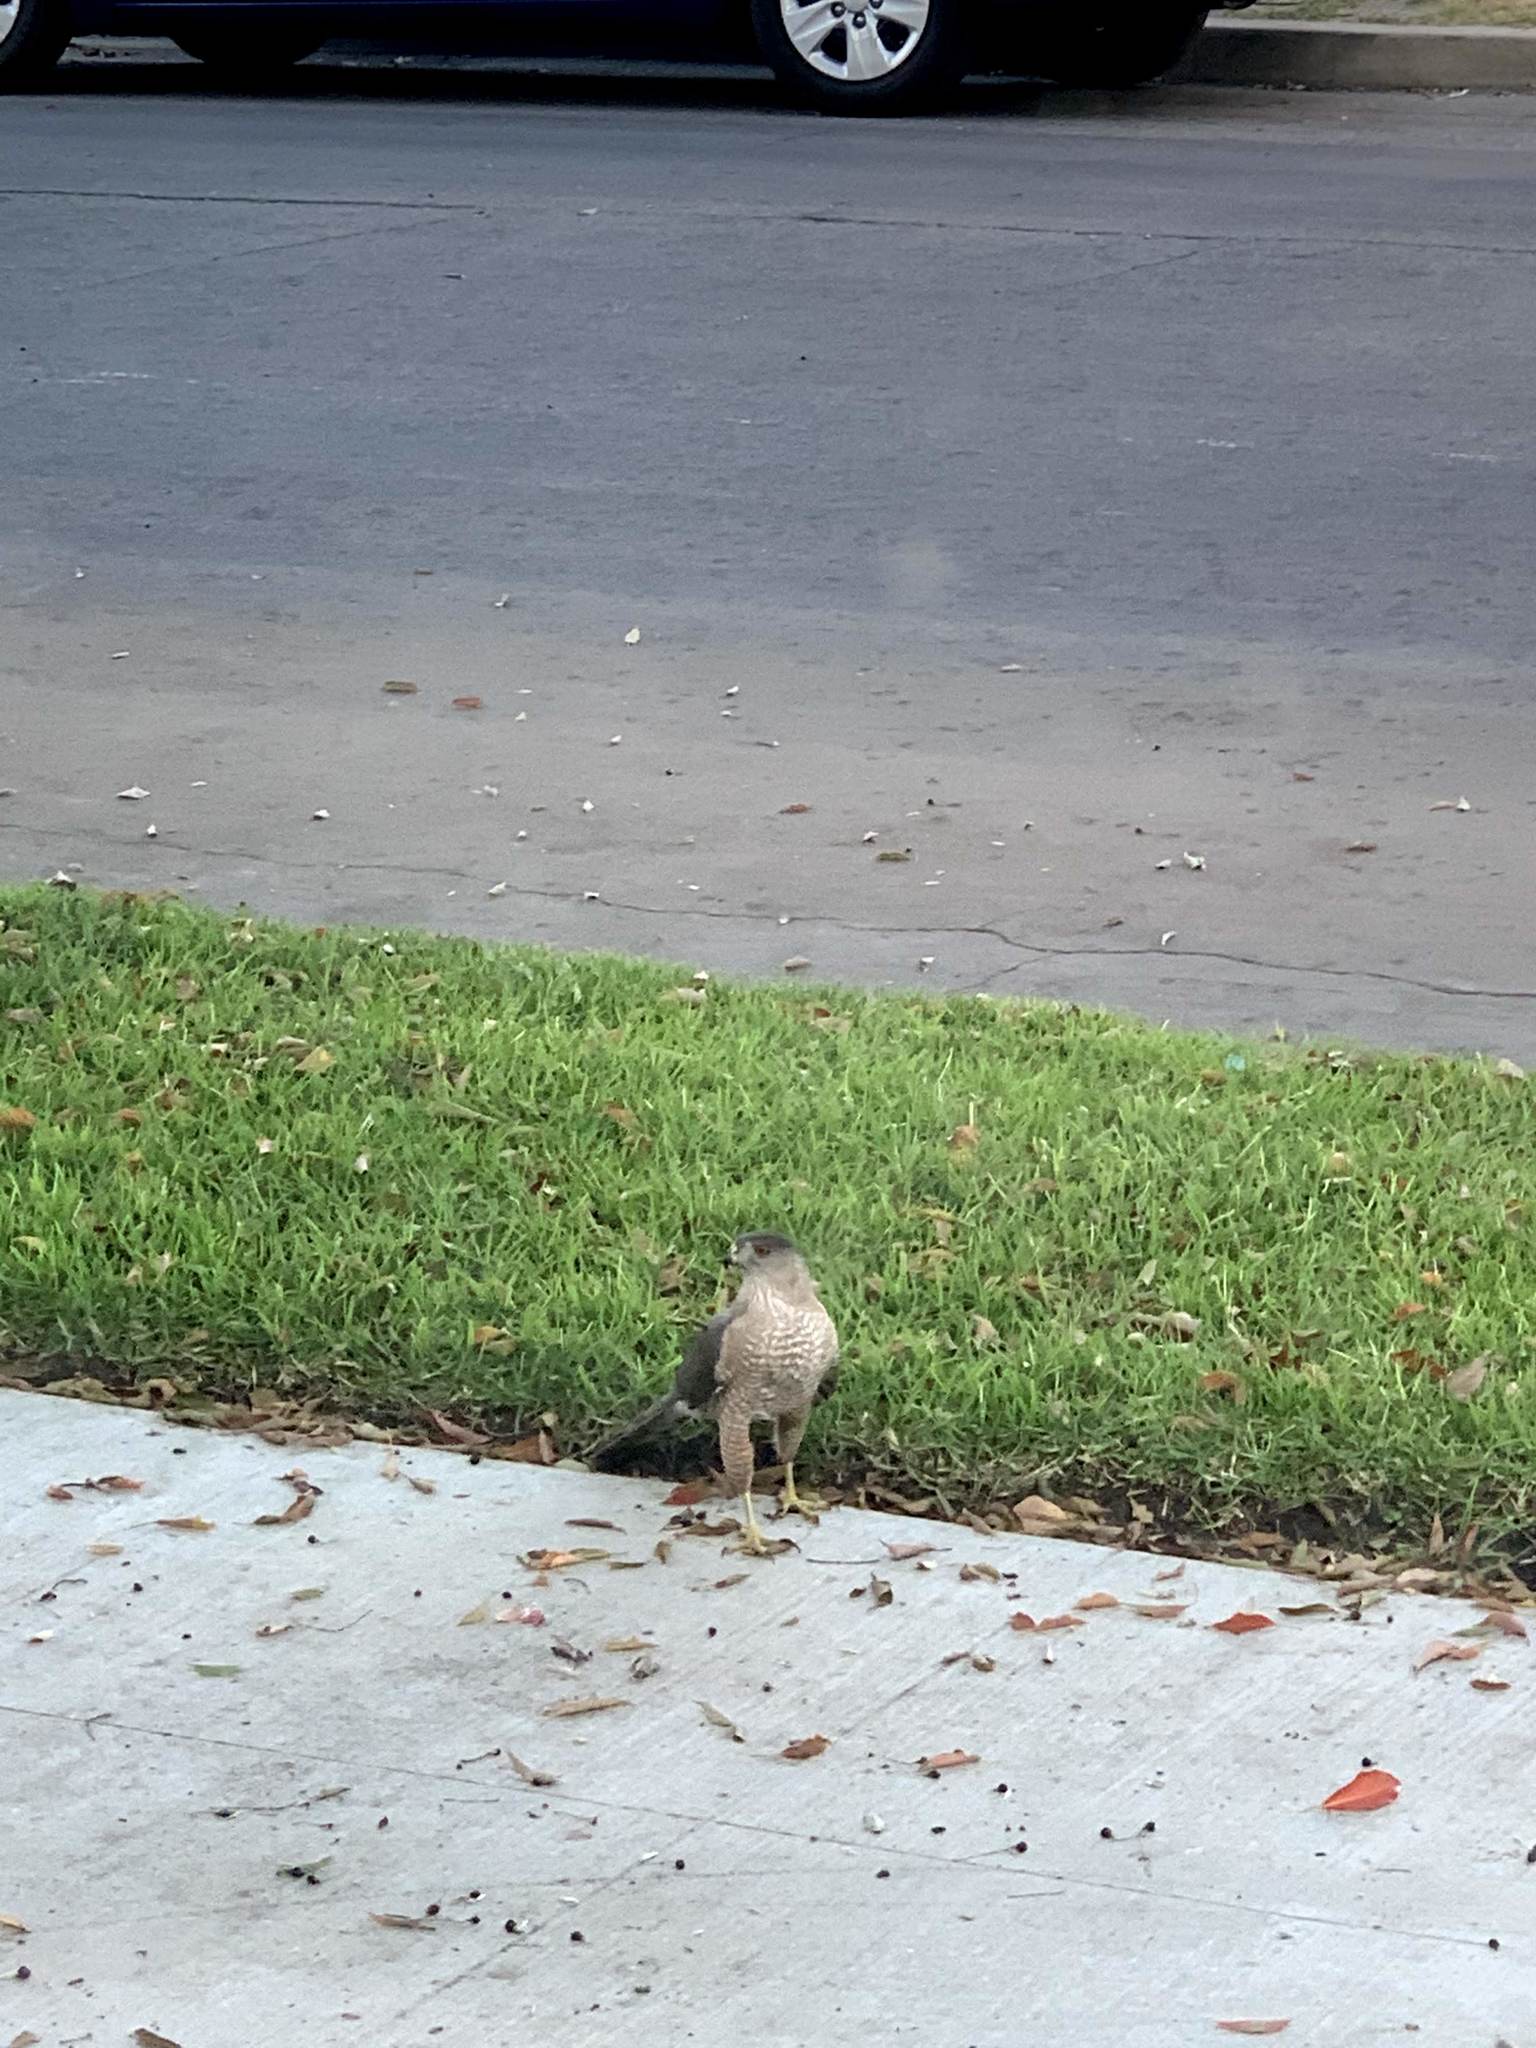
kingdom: Animalia
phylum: Chordata
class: Aves
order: Accipitriformes
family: Accipitridae
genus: Accipiter
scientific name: Accipiter cooperii
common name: Cooper's hawk
